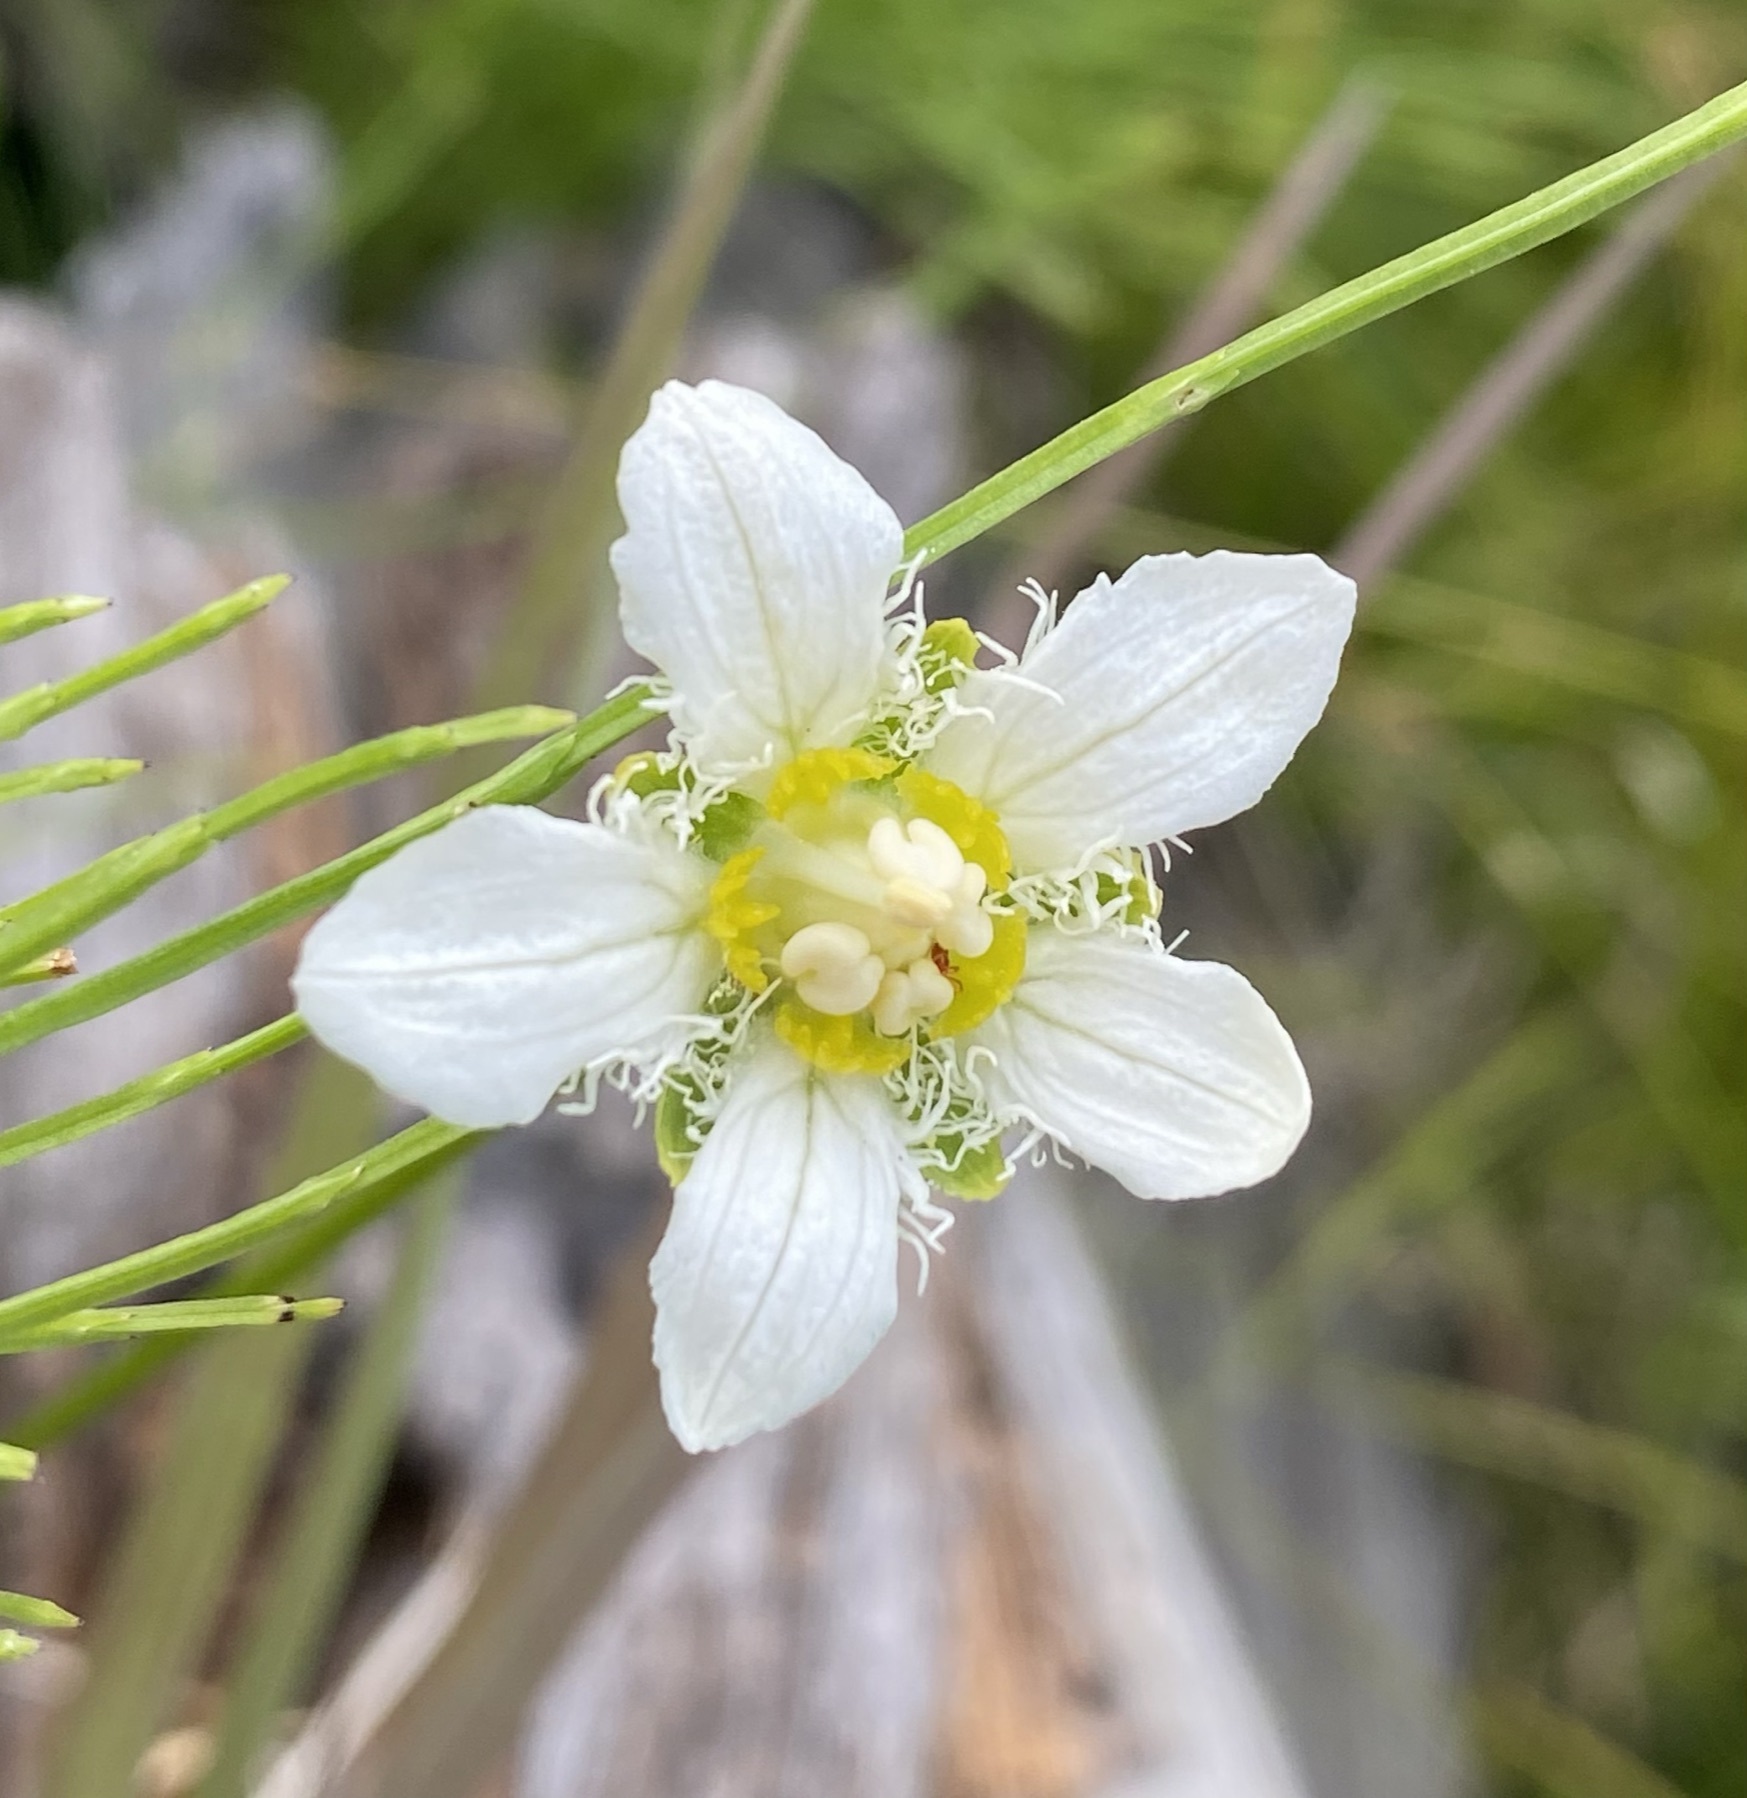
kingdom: Plantae
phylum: Tracheophyta
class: Magnoliopsida
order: Celastrales
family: Parnassiaceae
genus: Parnassia
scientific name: Parnassia fimbriata
